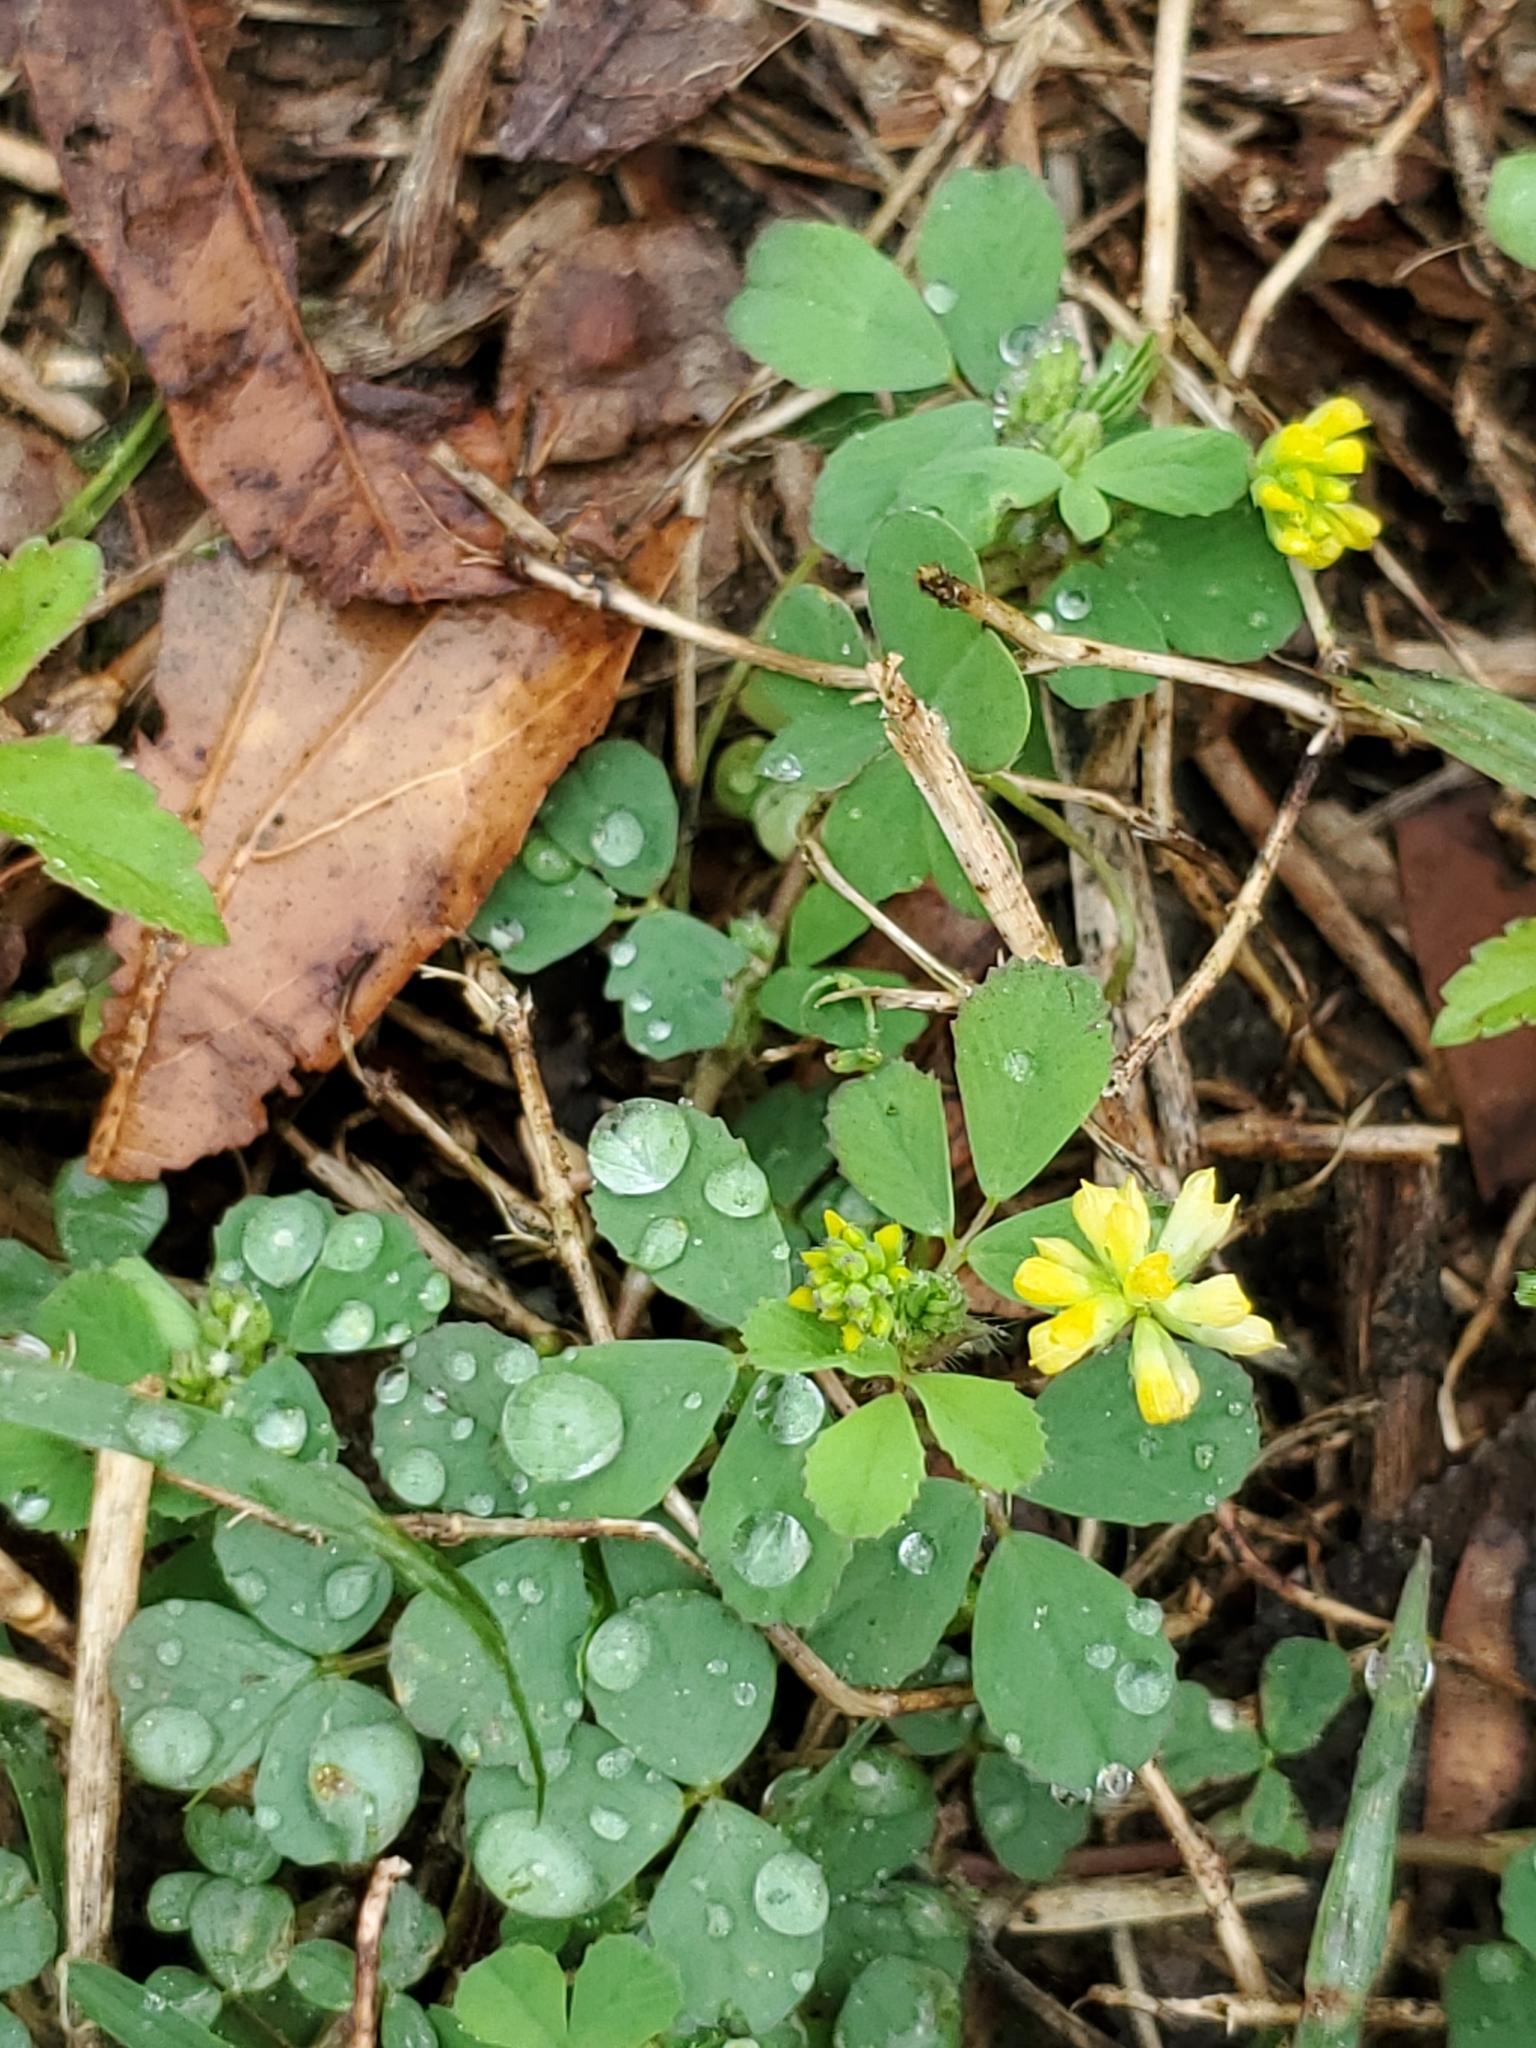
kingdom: Plantae
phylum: Tracheophyta
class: Magnoliopsida
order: Fabales
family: Fabaceae
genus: Trifolium
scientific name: Trifolium dubium
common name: Suckling clover
